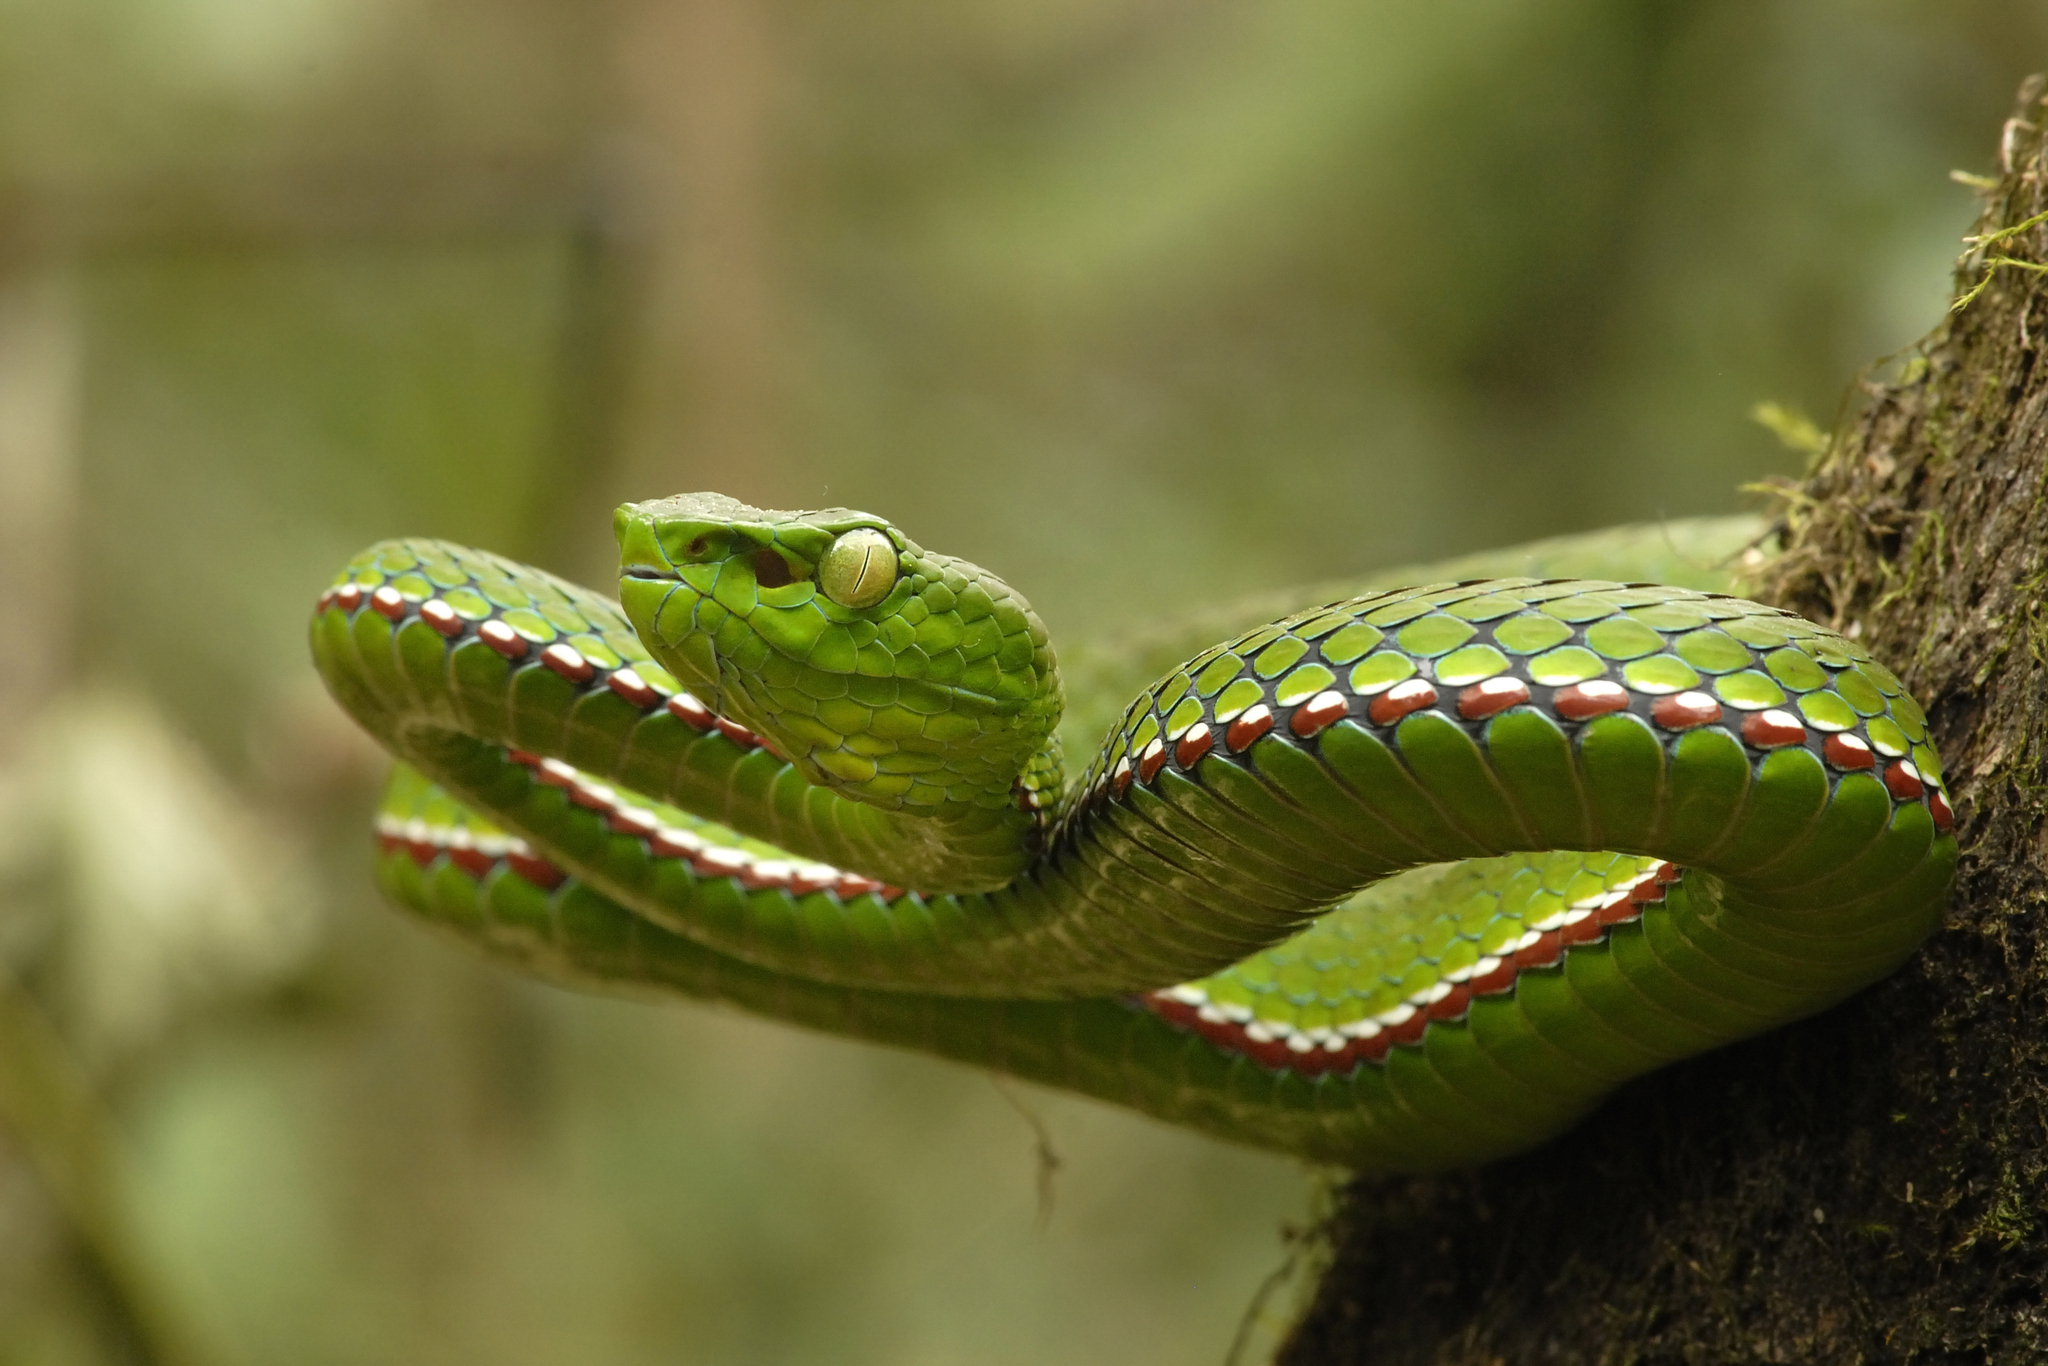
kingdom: Animalia
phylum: Chordata
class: Squamata
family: Viperidae
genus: Trimeresurus
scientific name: Trimeresurus medoensis
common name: Green bamboo leaf pit viper
